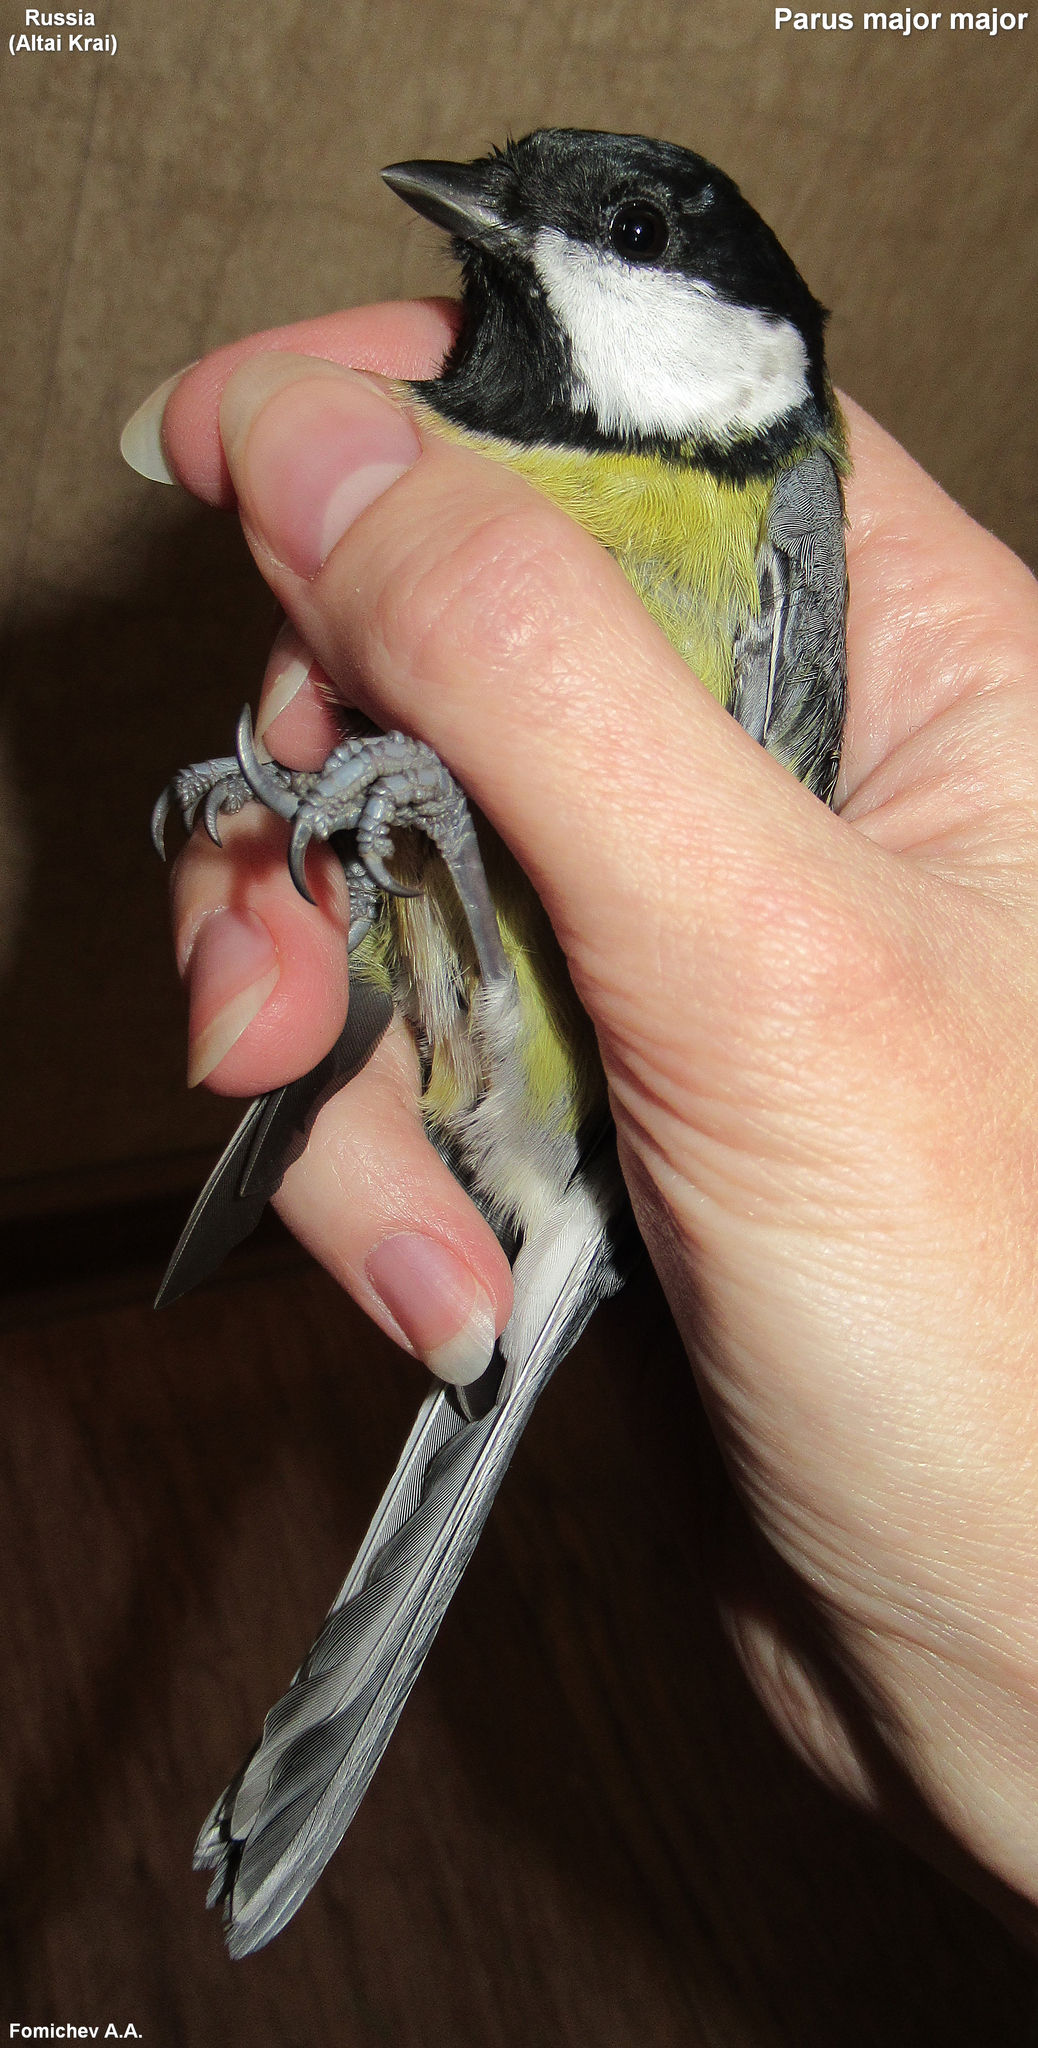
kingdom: Animalia
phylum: Chordata
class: Aves
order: Passeriformes
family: Paridae
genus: Parus
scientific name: Parus major
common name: Great tit
